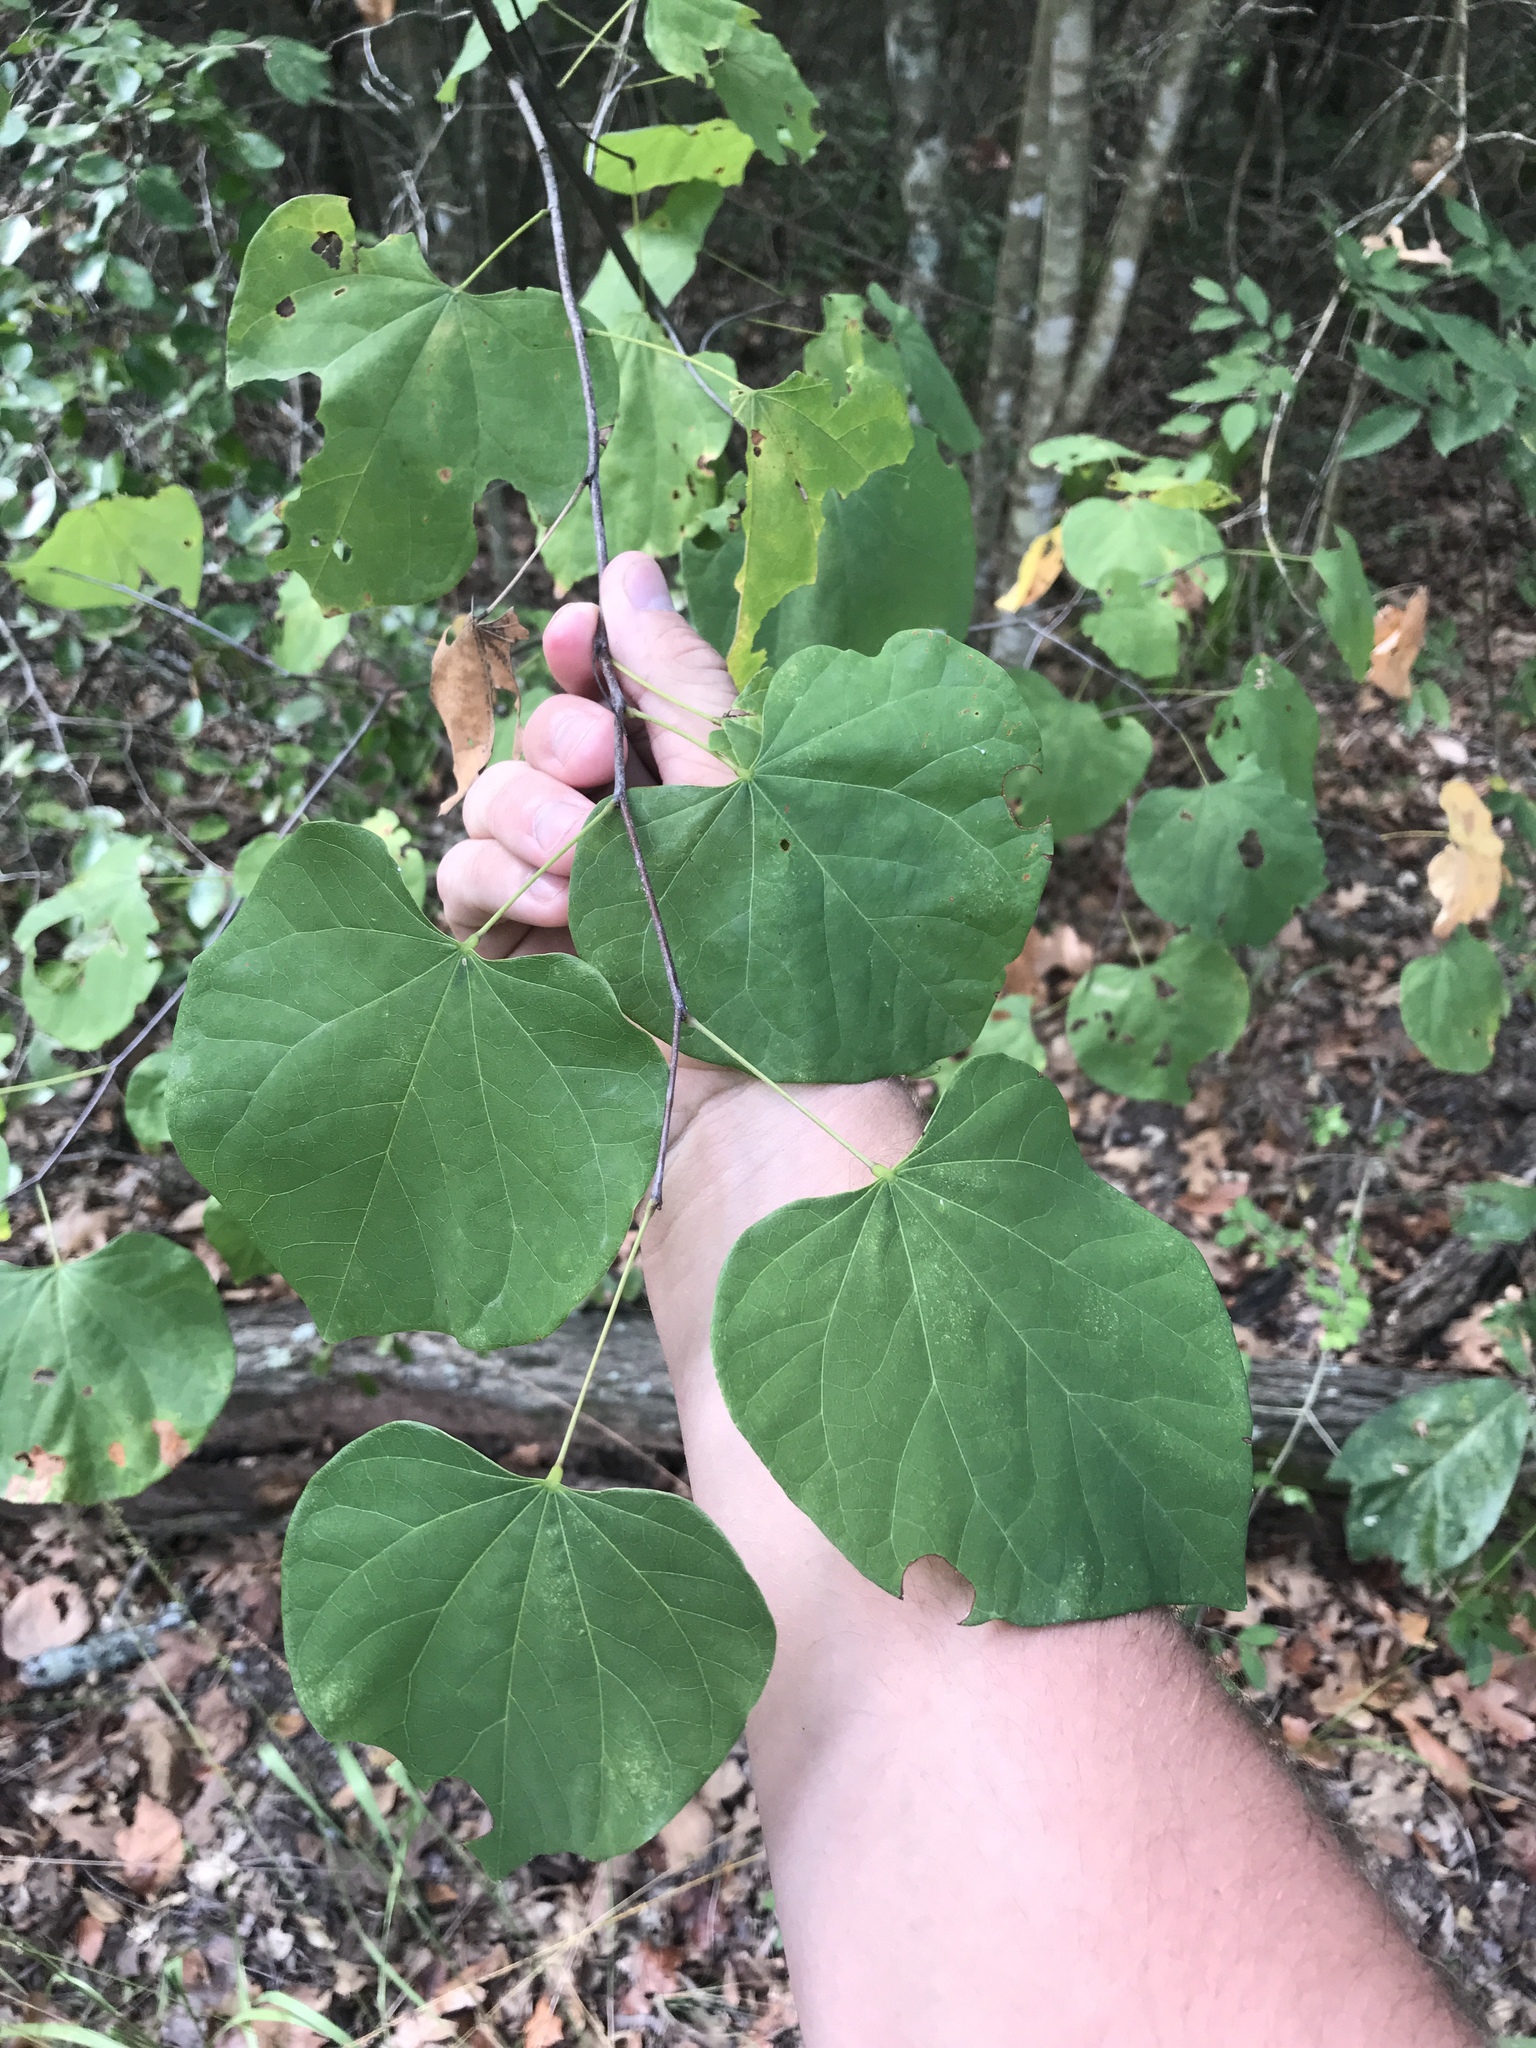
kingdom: Plantae
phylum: Tracheophyta
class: Magnoliopsida
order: Fabales
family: Fabaceae
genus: Cercis
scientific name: Cercis canadensis
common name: Eastern redbud
